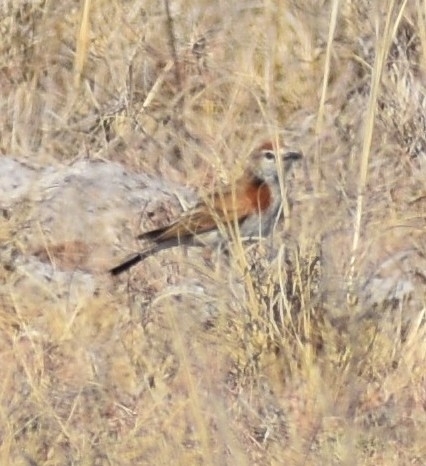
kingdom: Animalia
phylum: Chordata
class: Aves
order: Passeriformes
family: Alaudidae
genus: Calandrella
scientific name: Calandrella cinerea
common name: Red-capped lark
